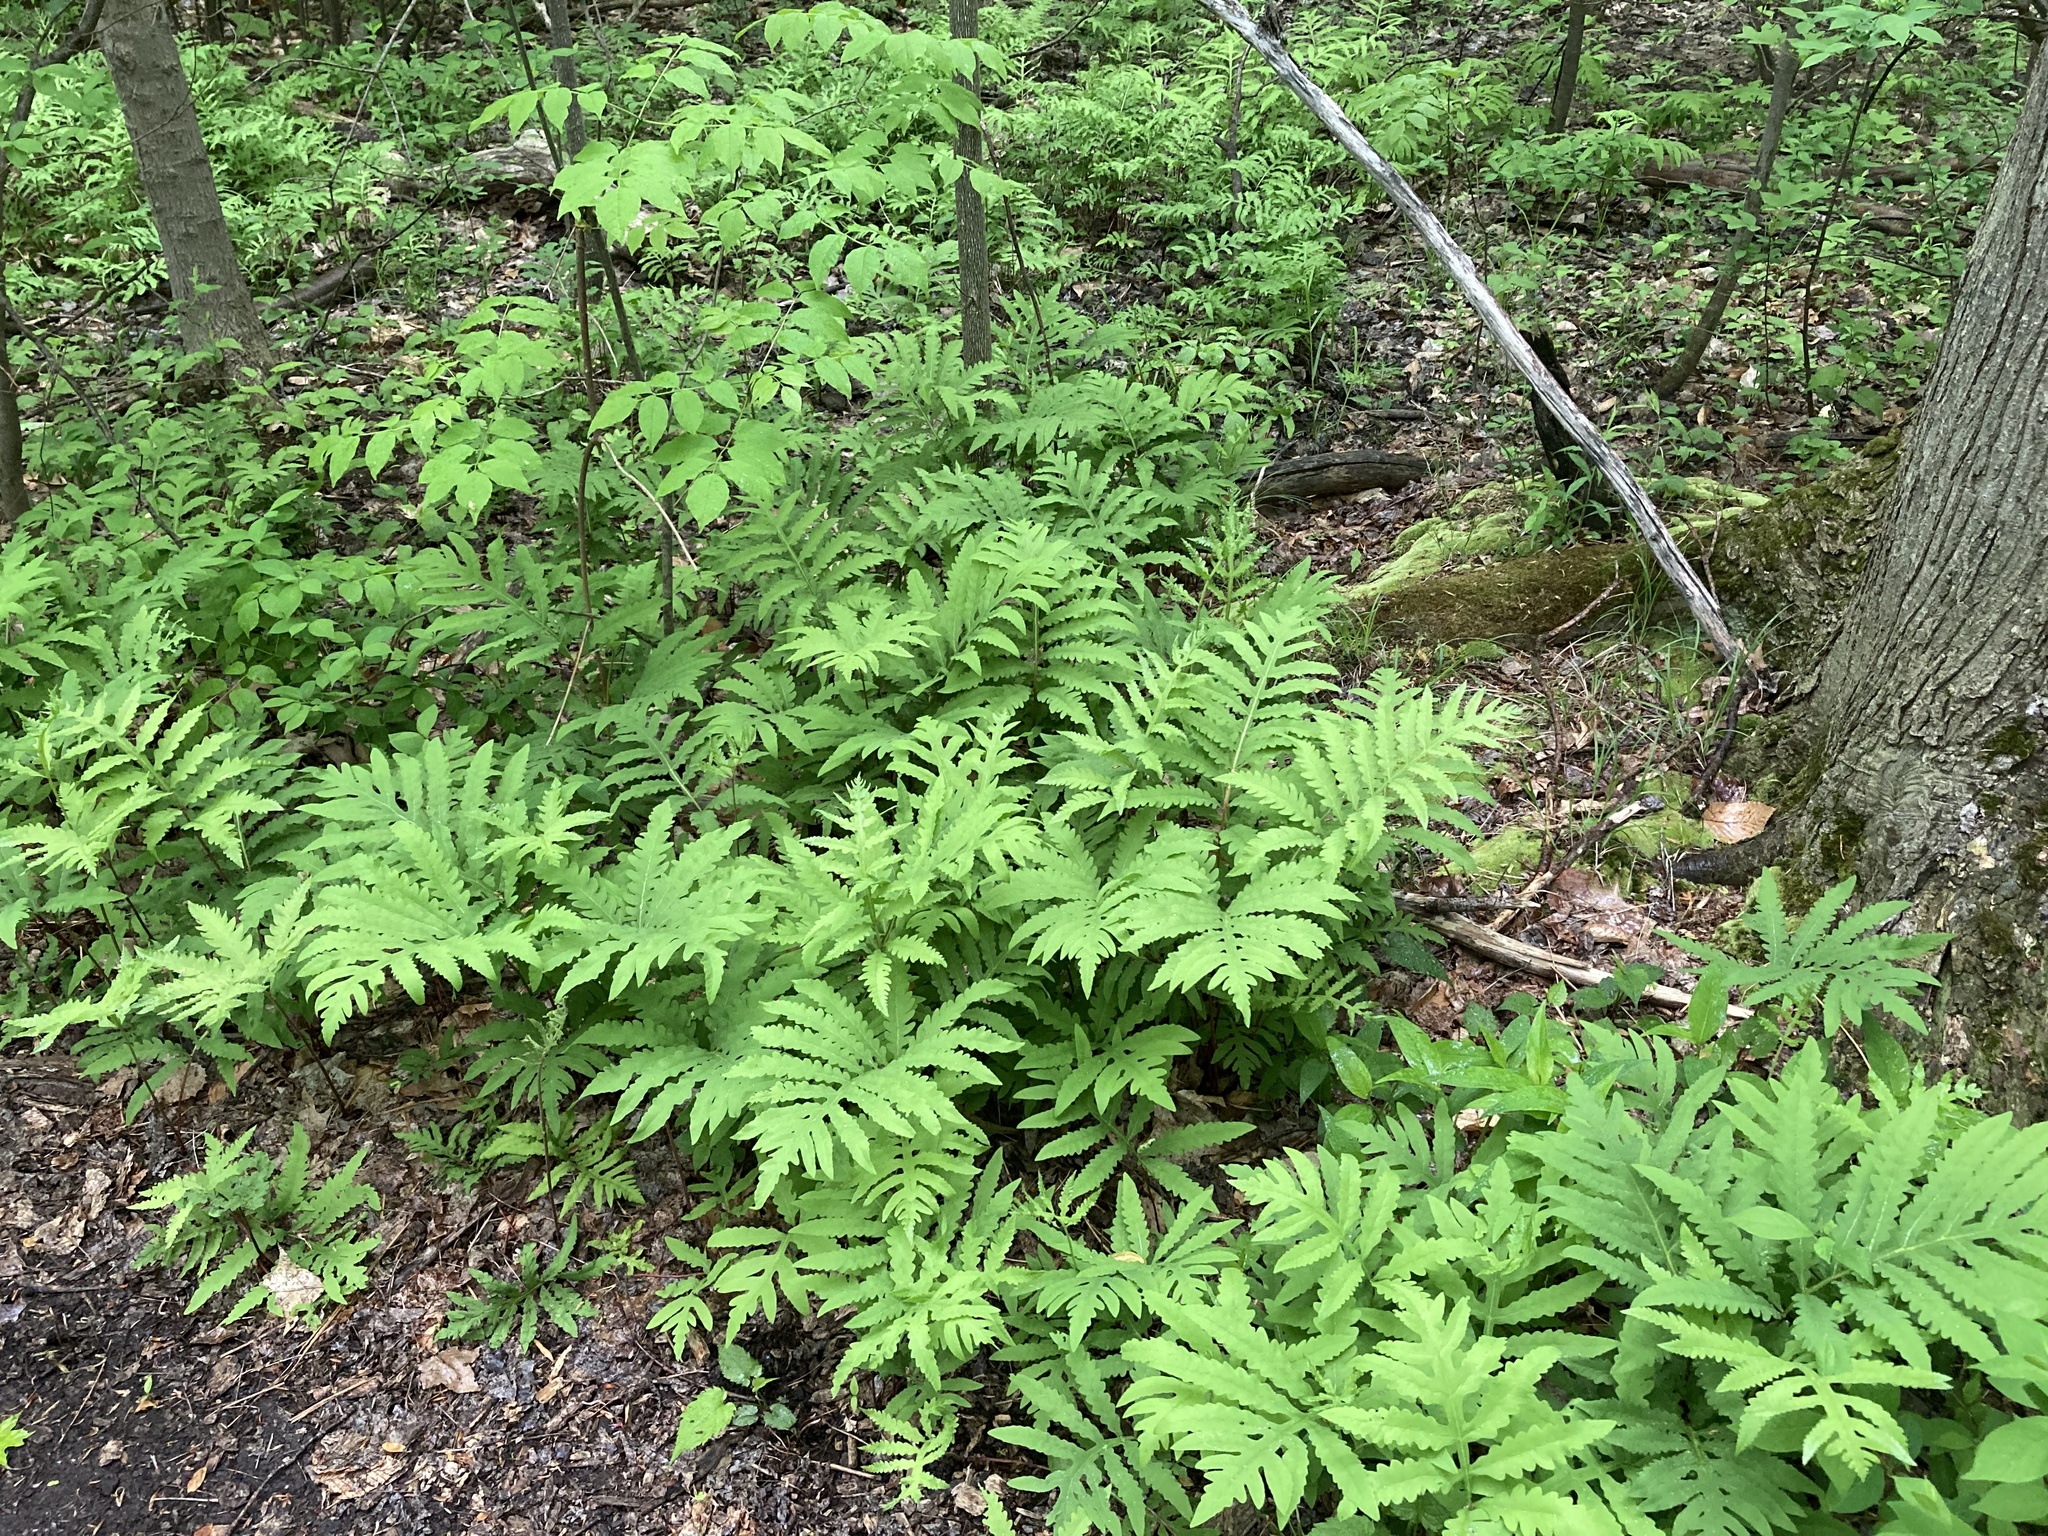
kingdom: Plantae
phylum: Tracheophyta
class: Polypodiopsida
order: Polypodiales
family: Onocleaceae
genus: Onoclea
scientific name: Onoclea sensibilis
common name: Sensitive fern
